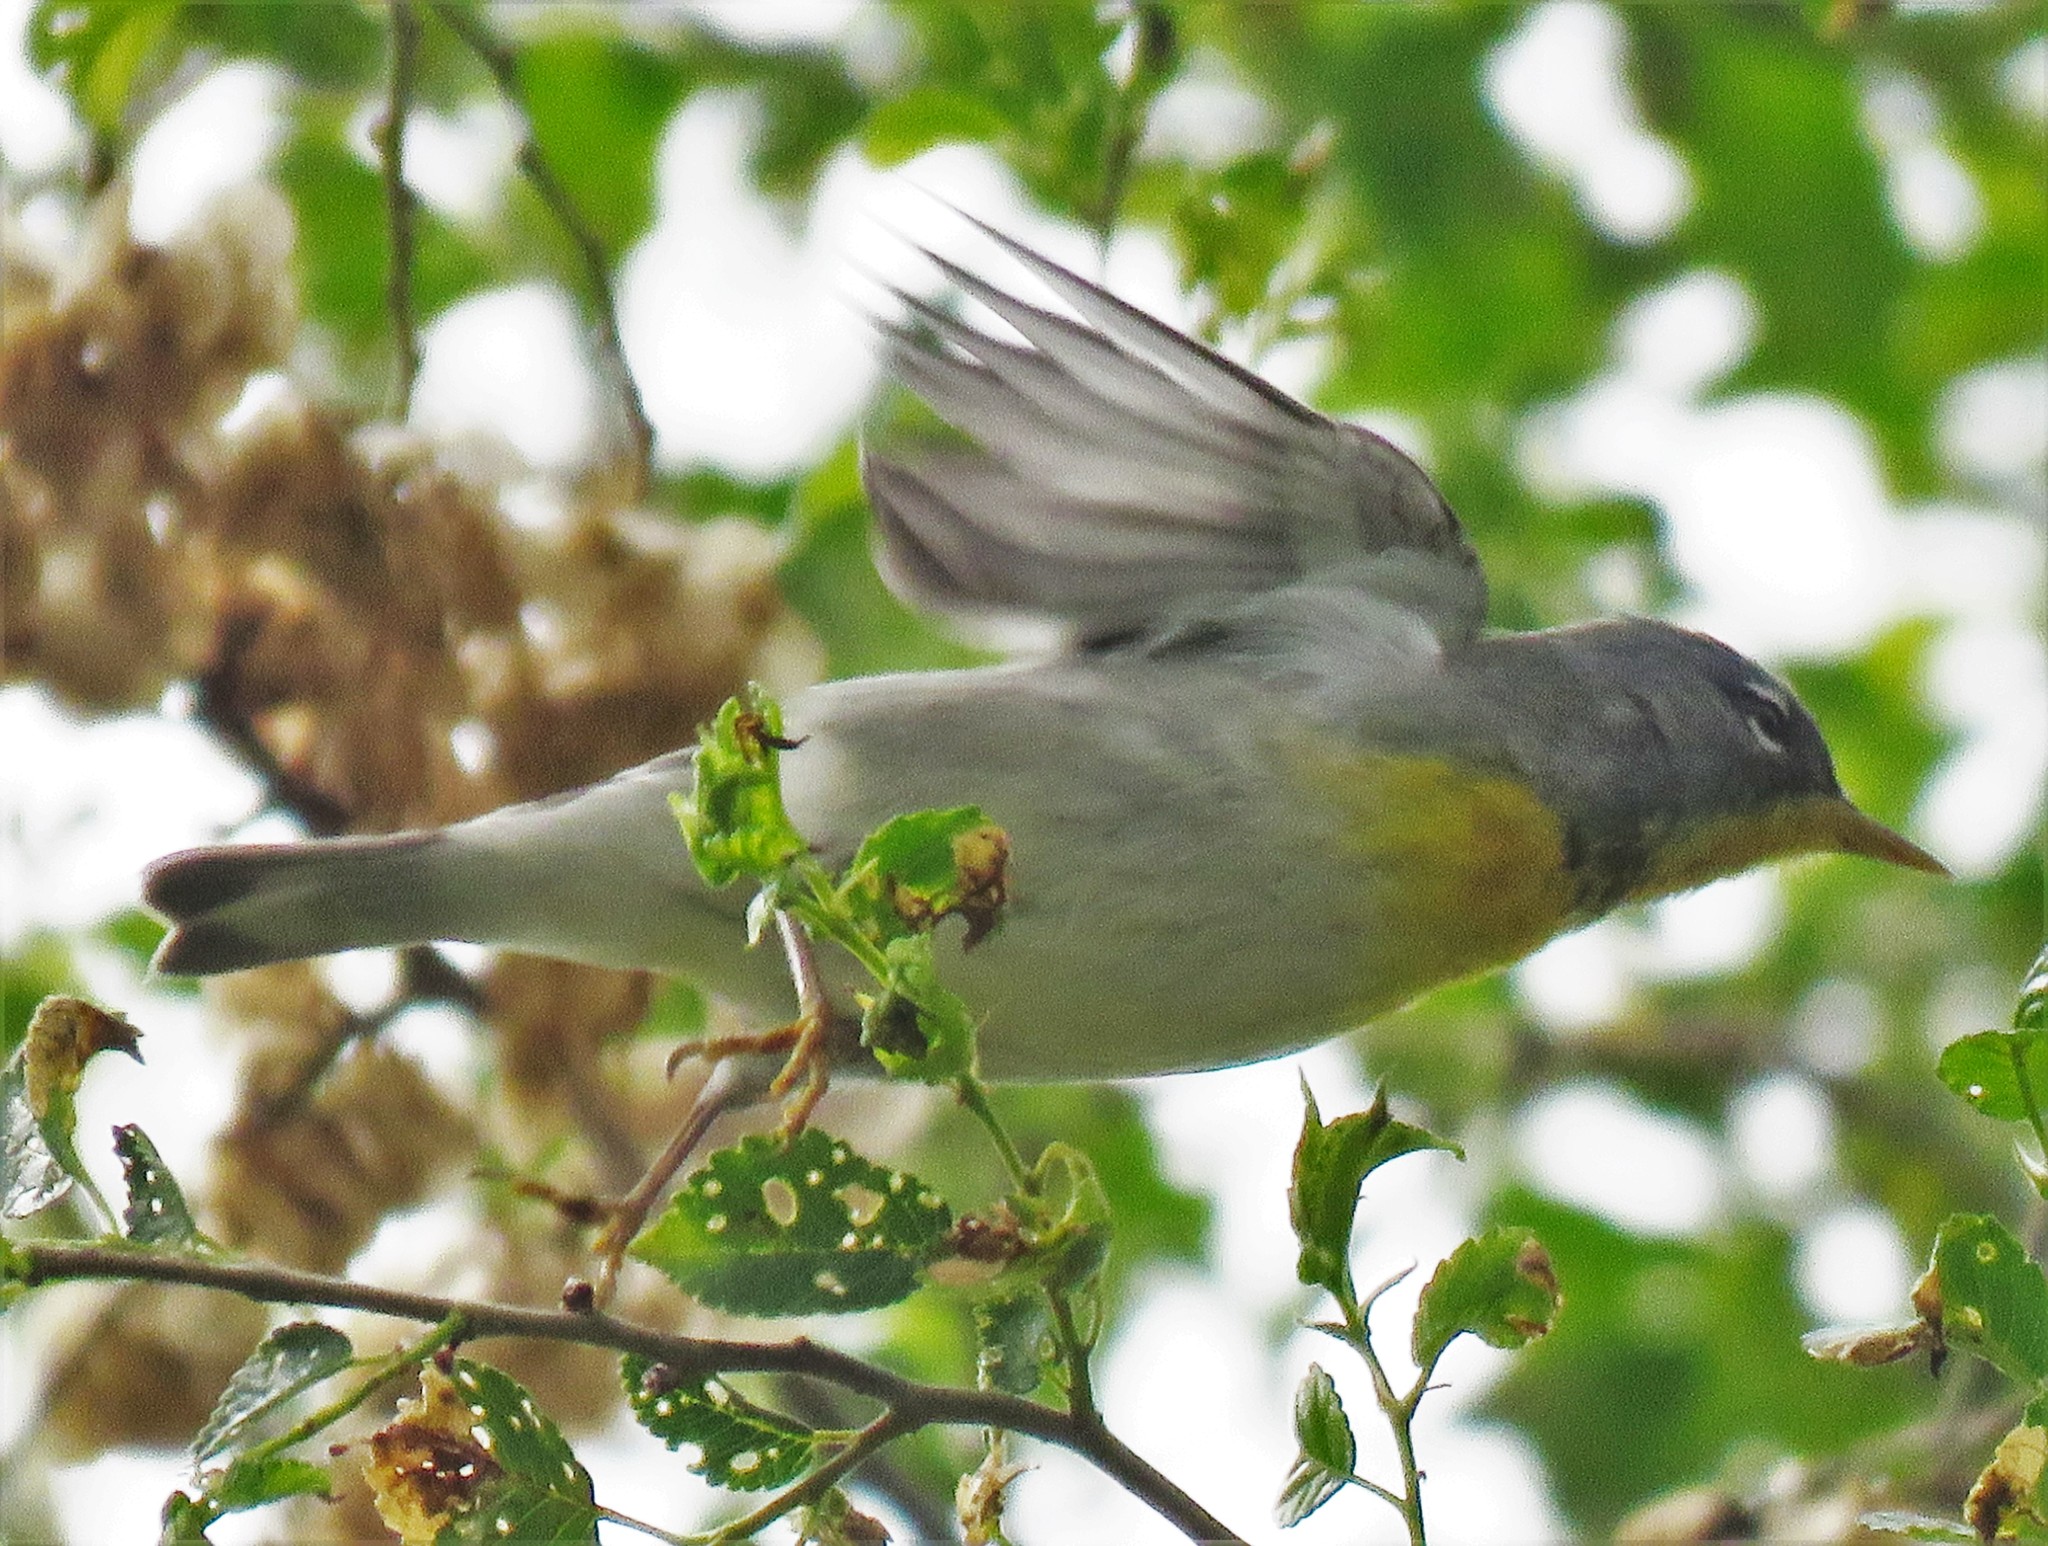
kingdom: Animalia
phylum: Chordata
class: Aves
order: Passeriformes
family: Parulidae
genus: Setophaga
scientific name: Setophaga americana
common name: Northern parula
